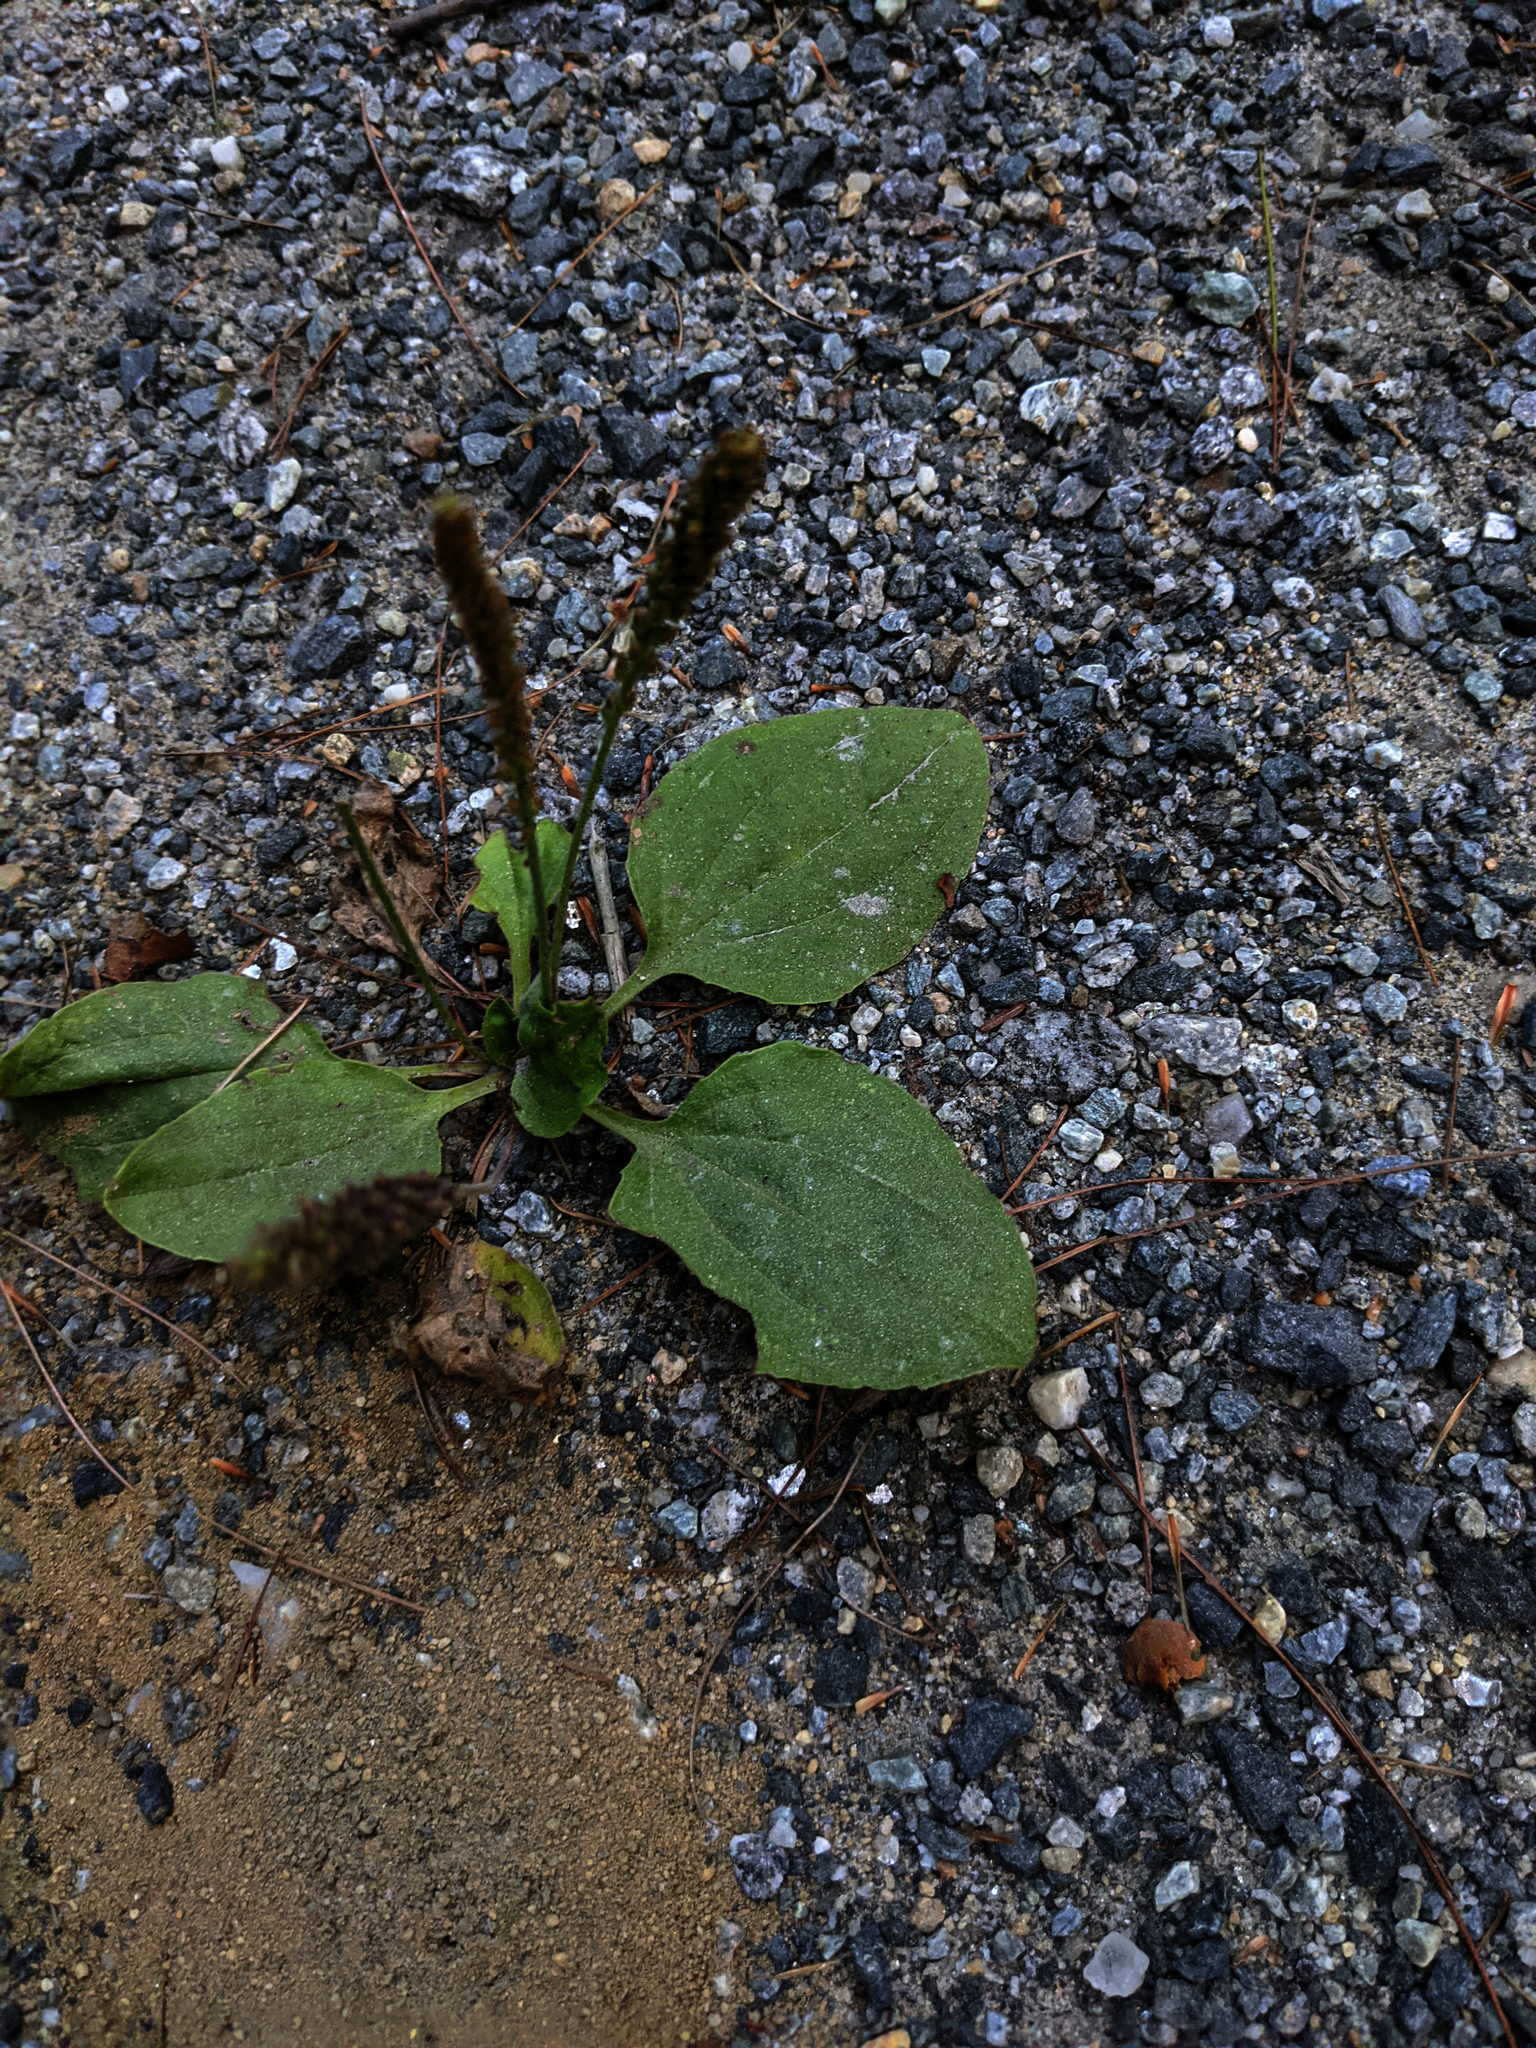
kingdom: Plantae
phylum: Tracheophyta
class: Magnoliopsida
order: Lamiales
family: Plantaginaceae
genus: Plantago
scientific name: Plantago major
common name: Common plantain
